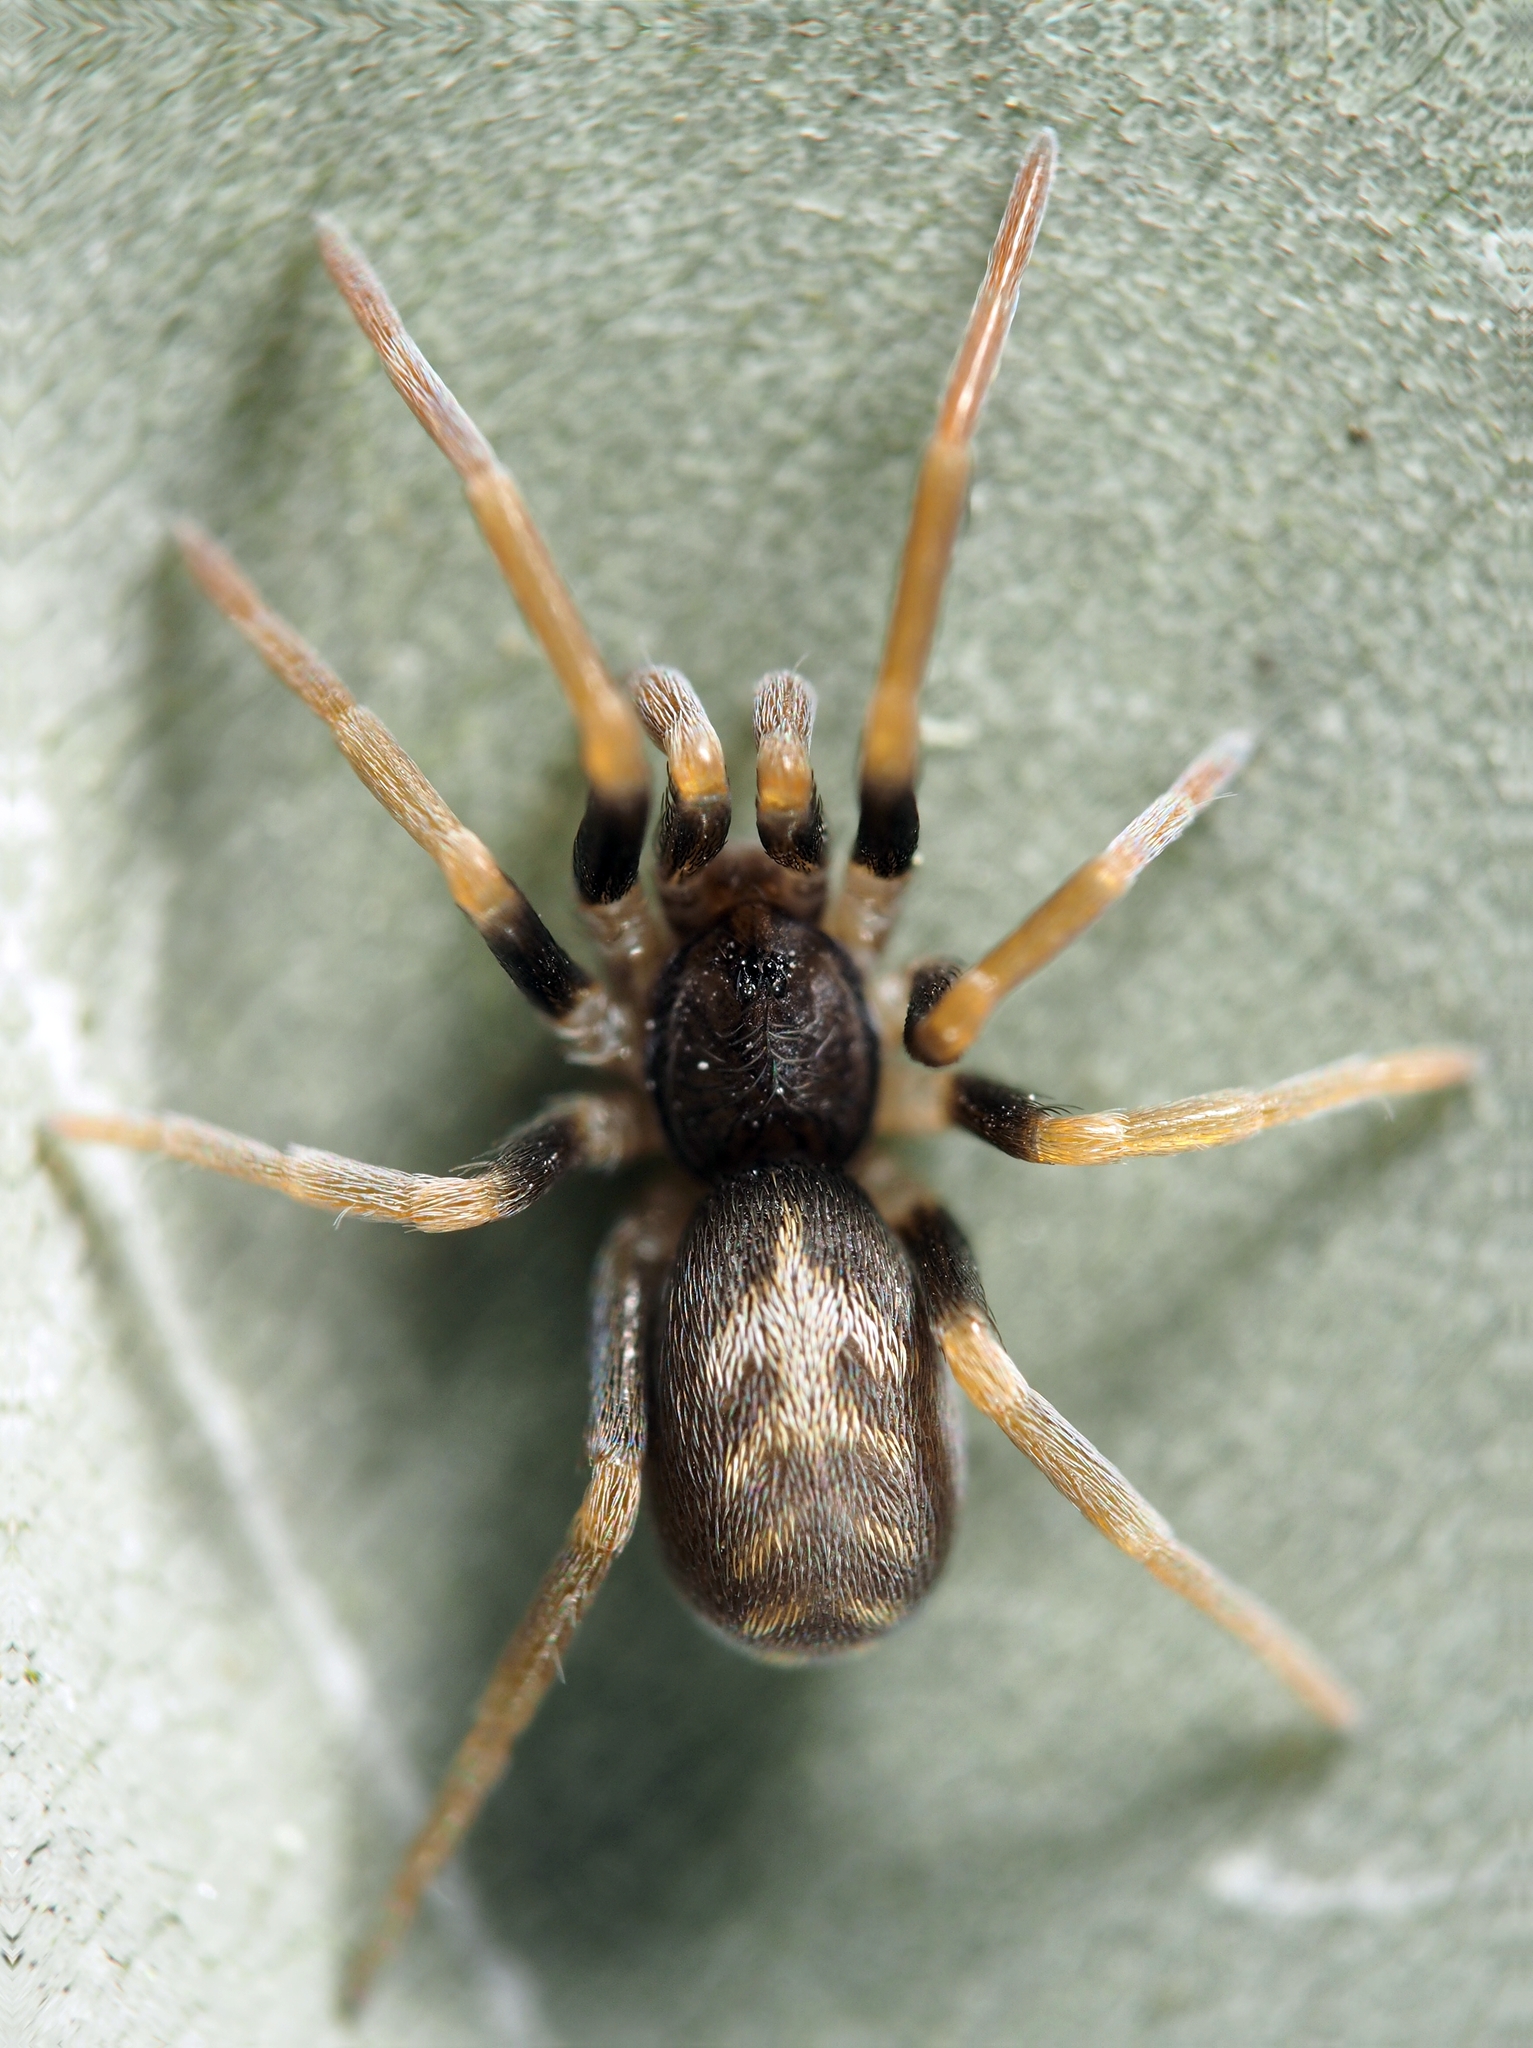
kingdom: Animalia
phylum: Arthropoda
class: Arachnida
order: Araneae
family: Filistatidae
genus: Pritha
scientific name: Pritha
